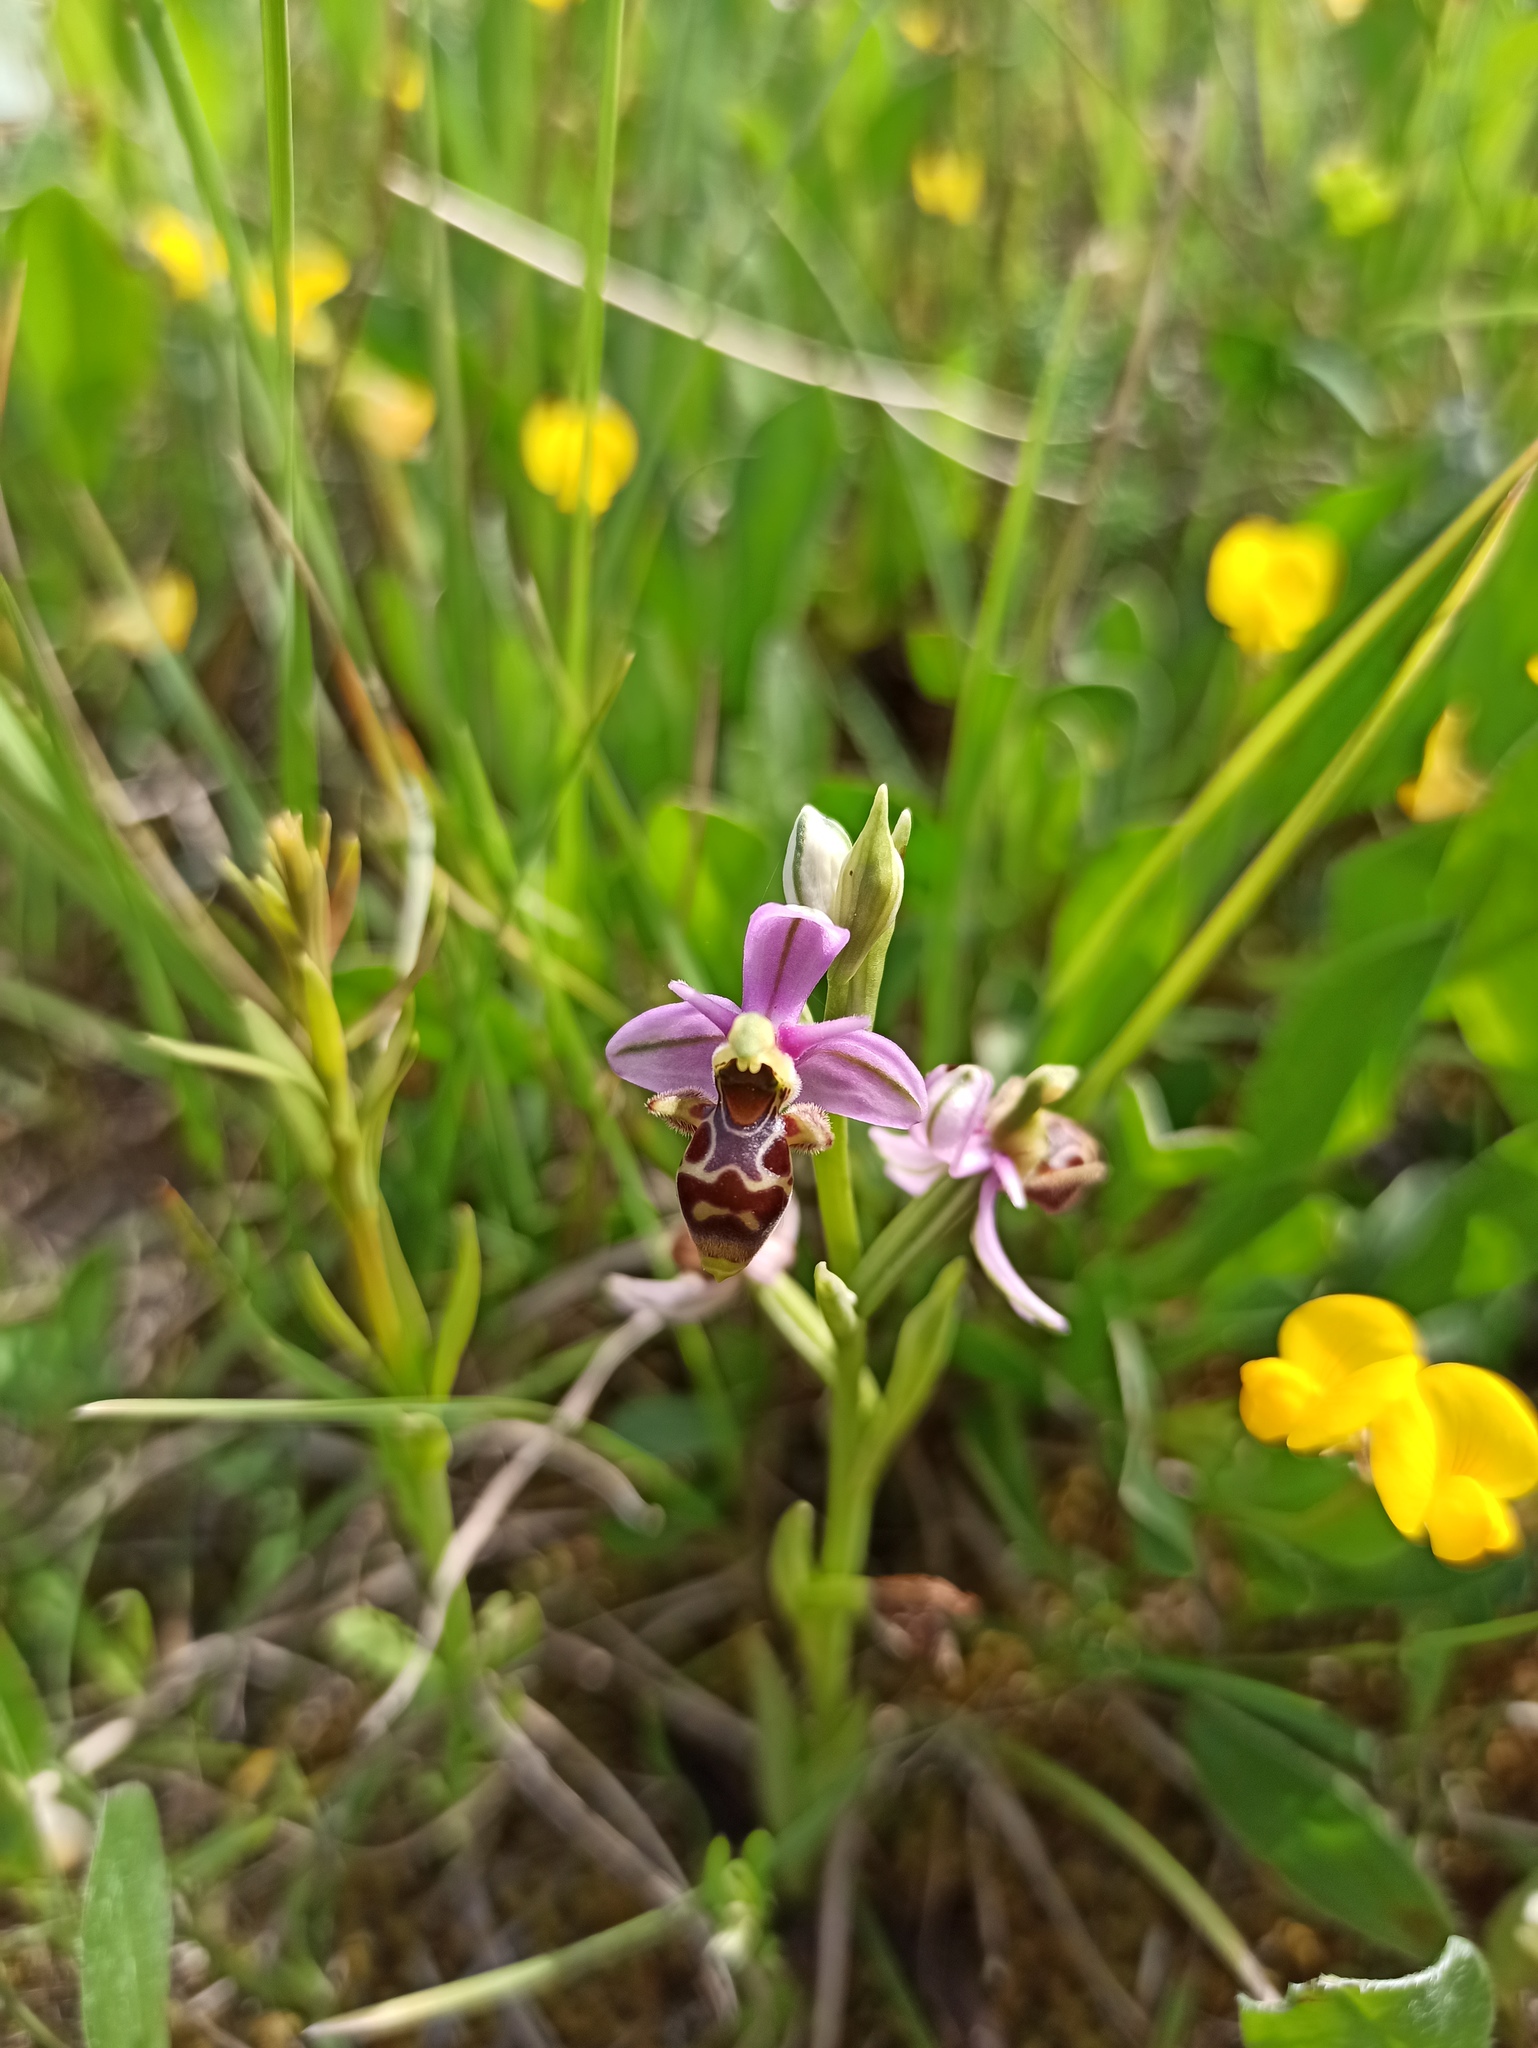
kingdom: Plantae
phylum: Tracheophyta
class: Liliopsida
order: Asparagales
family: Orchidaceae
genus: Ophrys
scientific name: Ophrys scolopax
